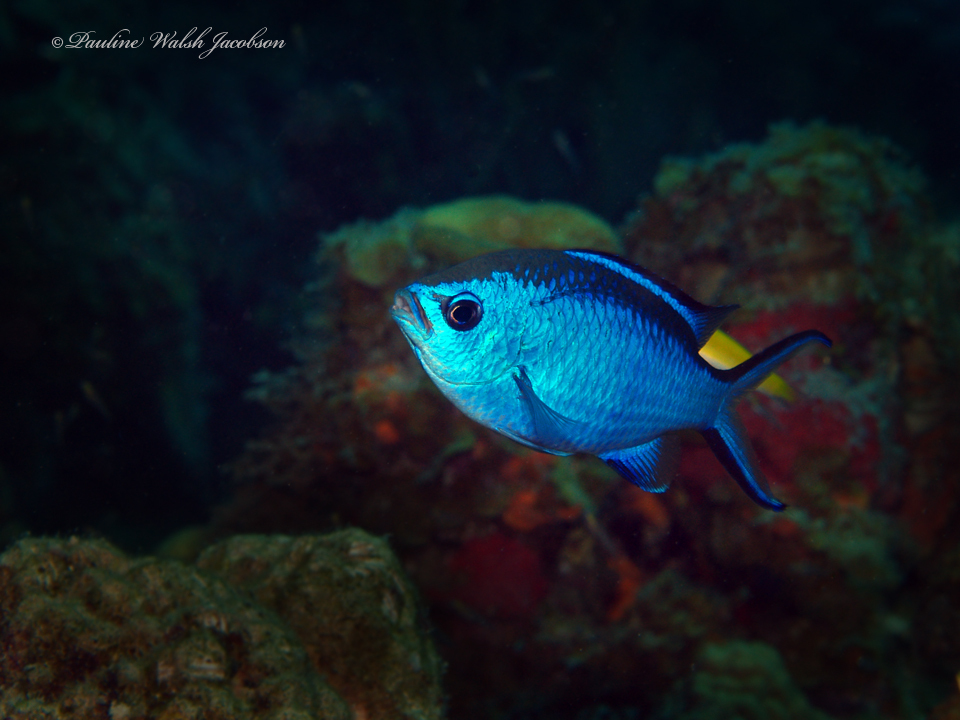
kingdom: Animalia
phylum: Chordata
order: Perciformes
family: Pomacentridae
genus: Chromis
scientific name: Chromis cyanea
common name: Blue chromis
